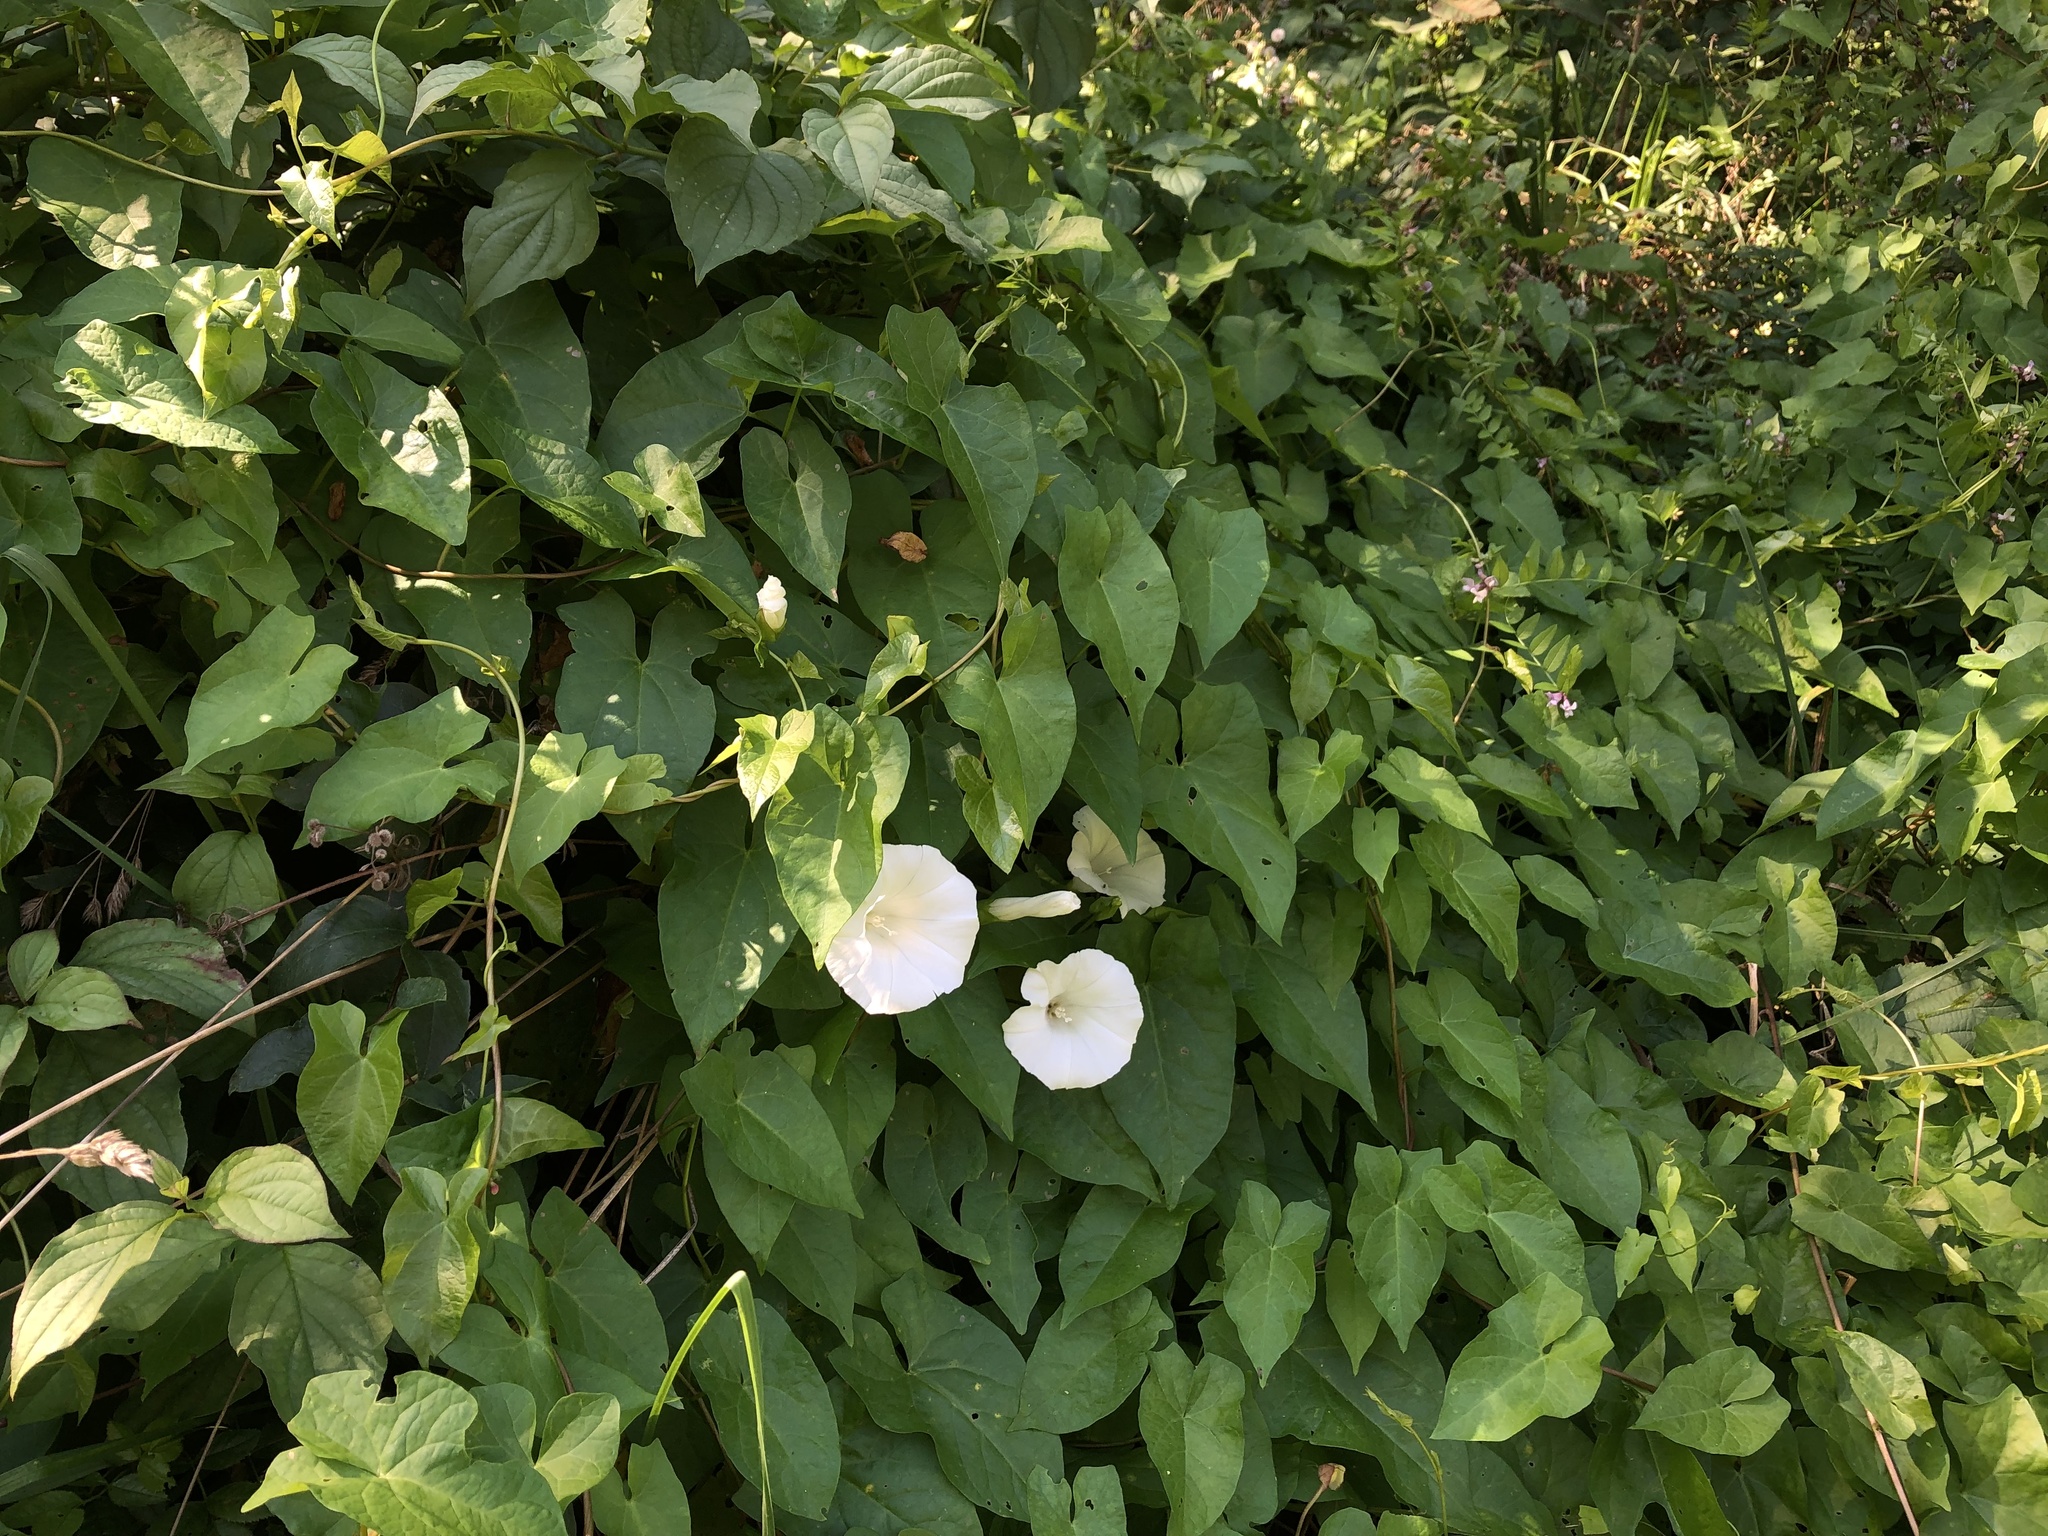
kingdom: Plantae
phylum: Tracheophyta
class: Magnoliopsida
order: Solanales
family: Convolvulaceae
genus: Calystegia
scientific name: Calystegia sepium
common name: Hedge bindweed
